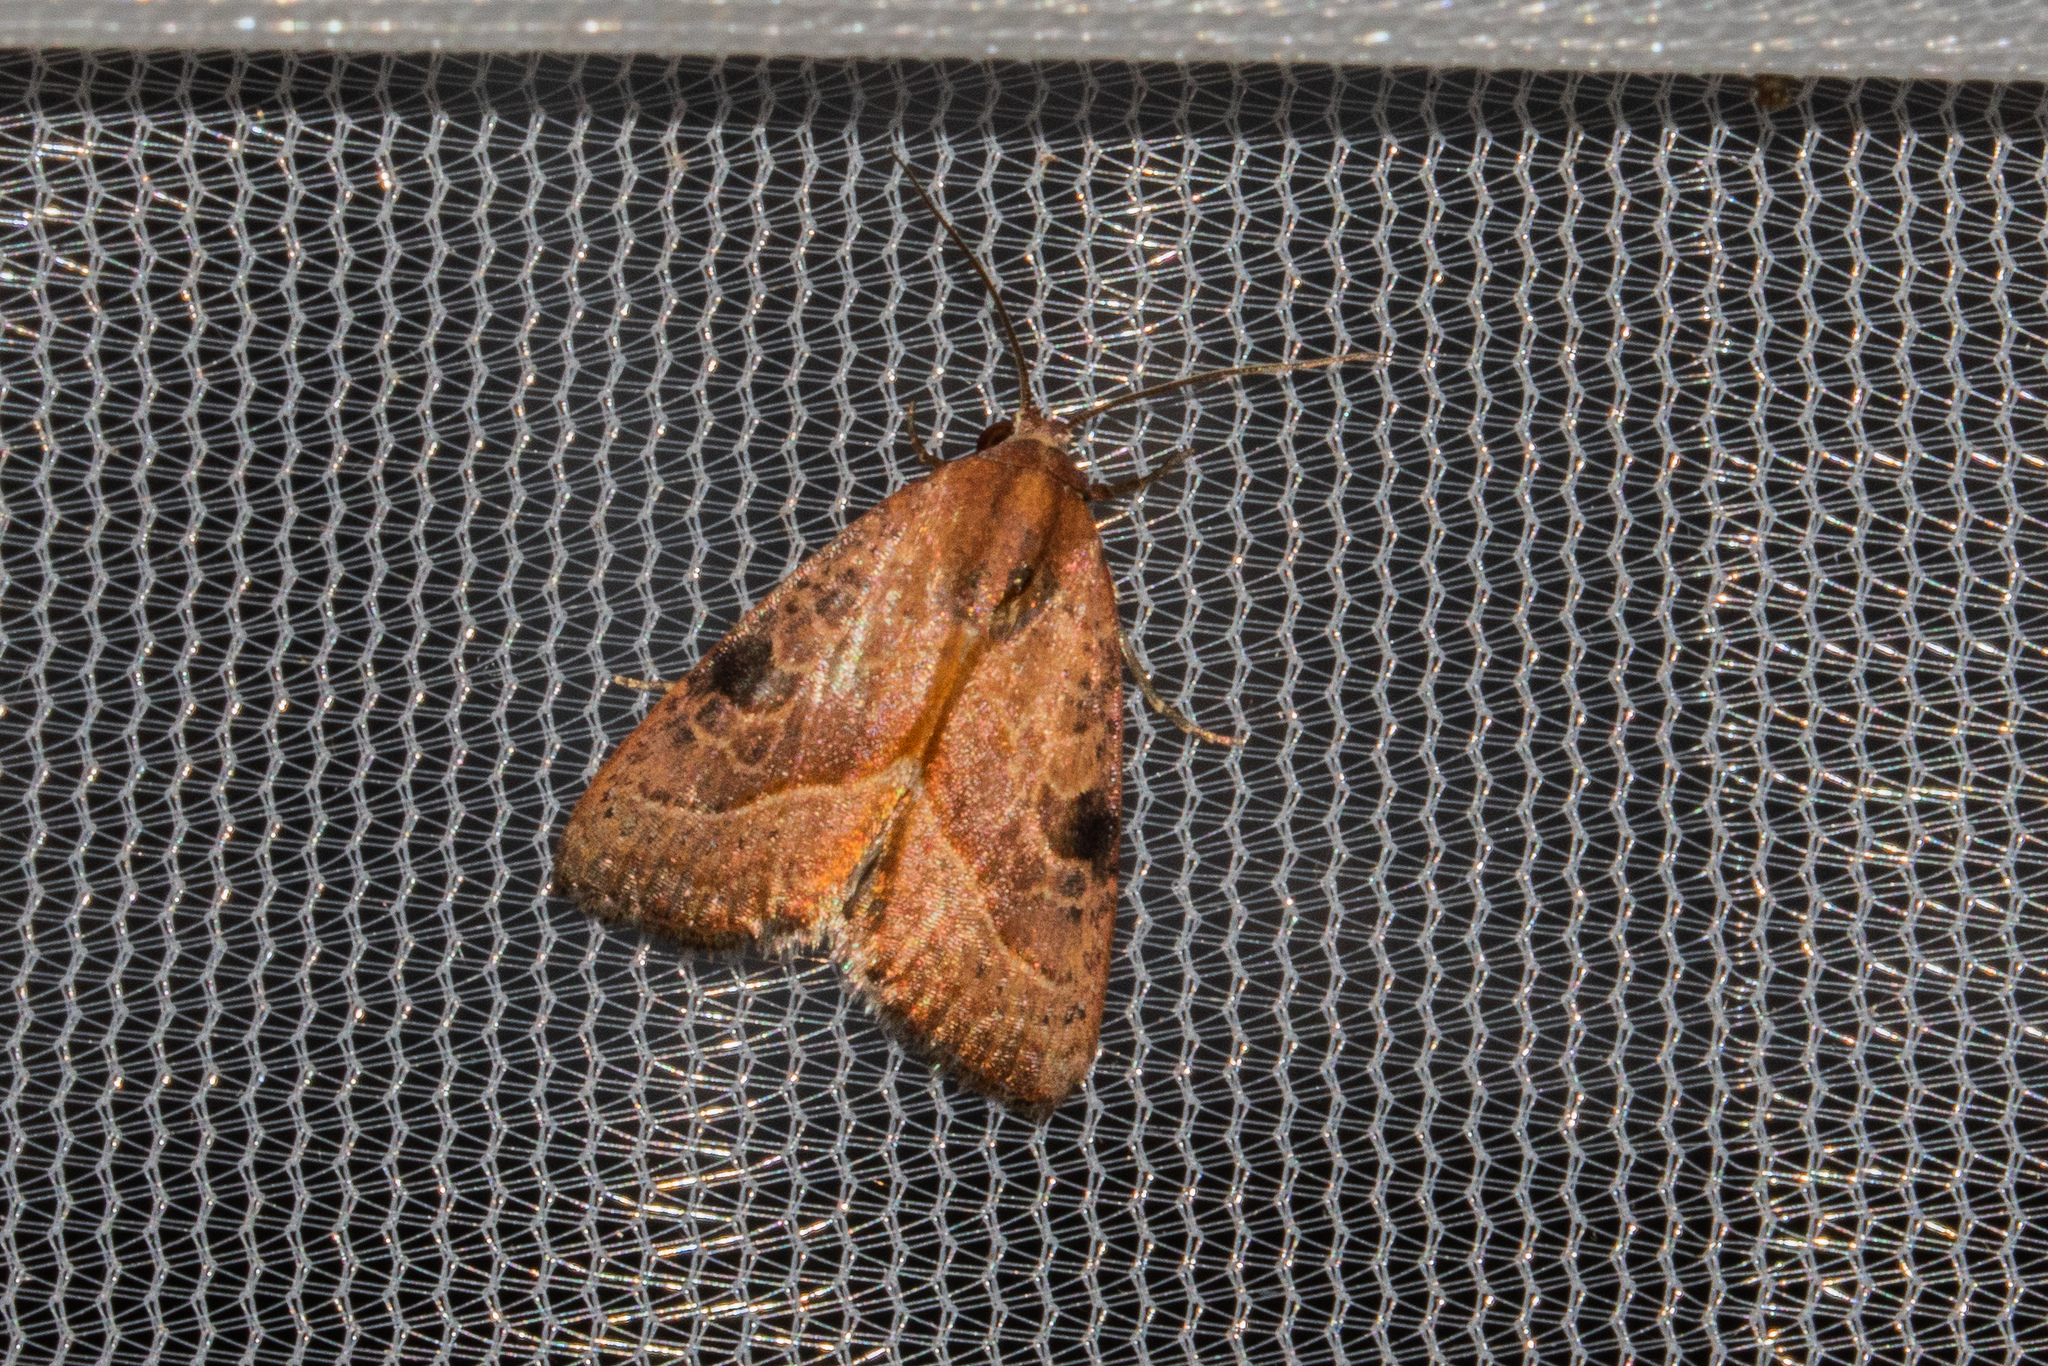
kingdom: Animalia
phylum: Arthropoda
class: Insecta
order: Lepidoptera
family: Noctuidae
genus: Galgula
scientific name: Galgula partita
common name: Wedgeling
